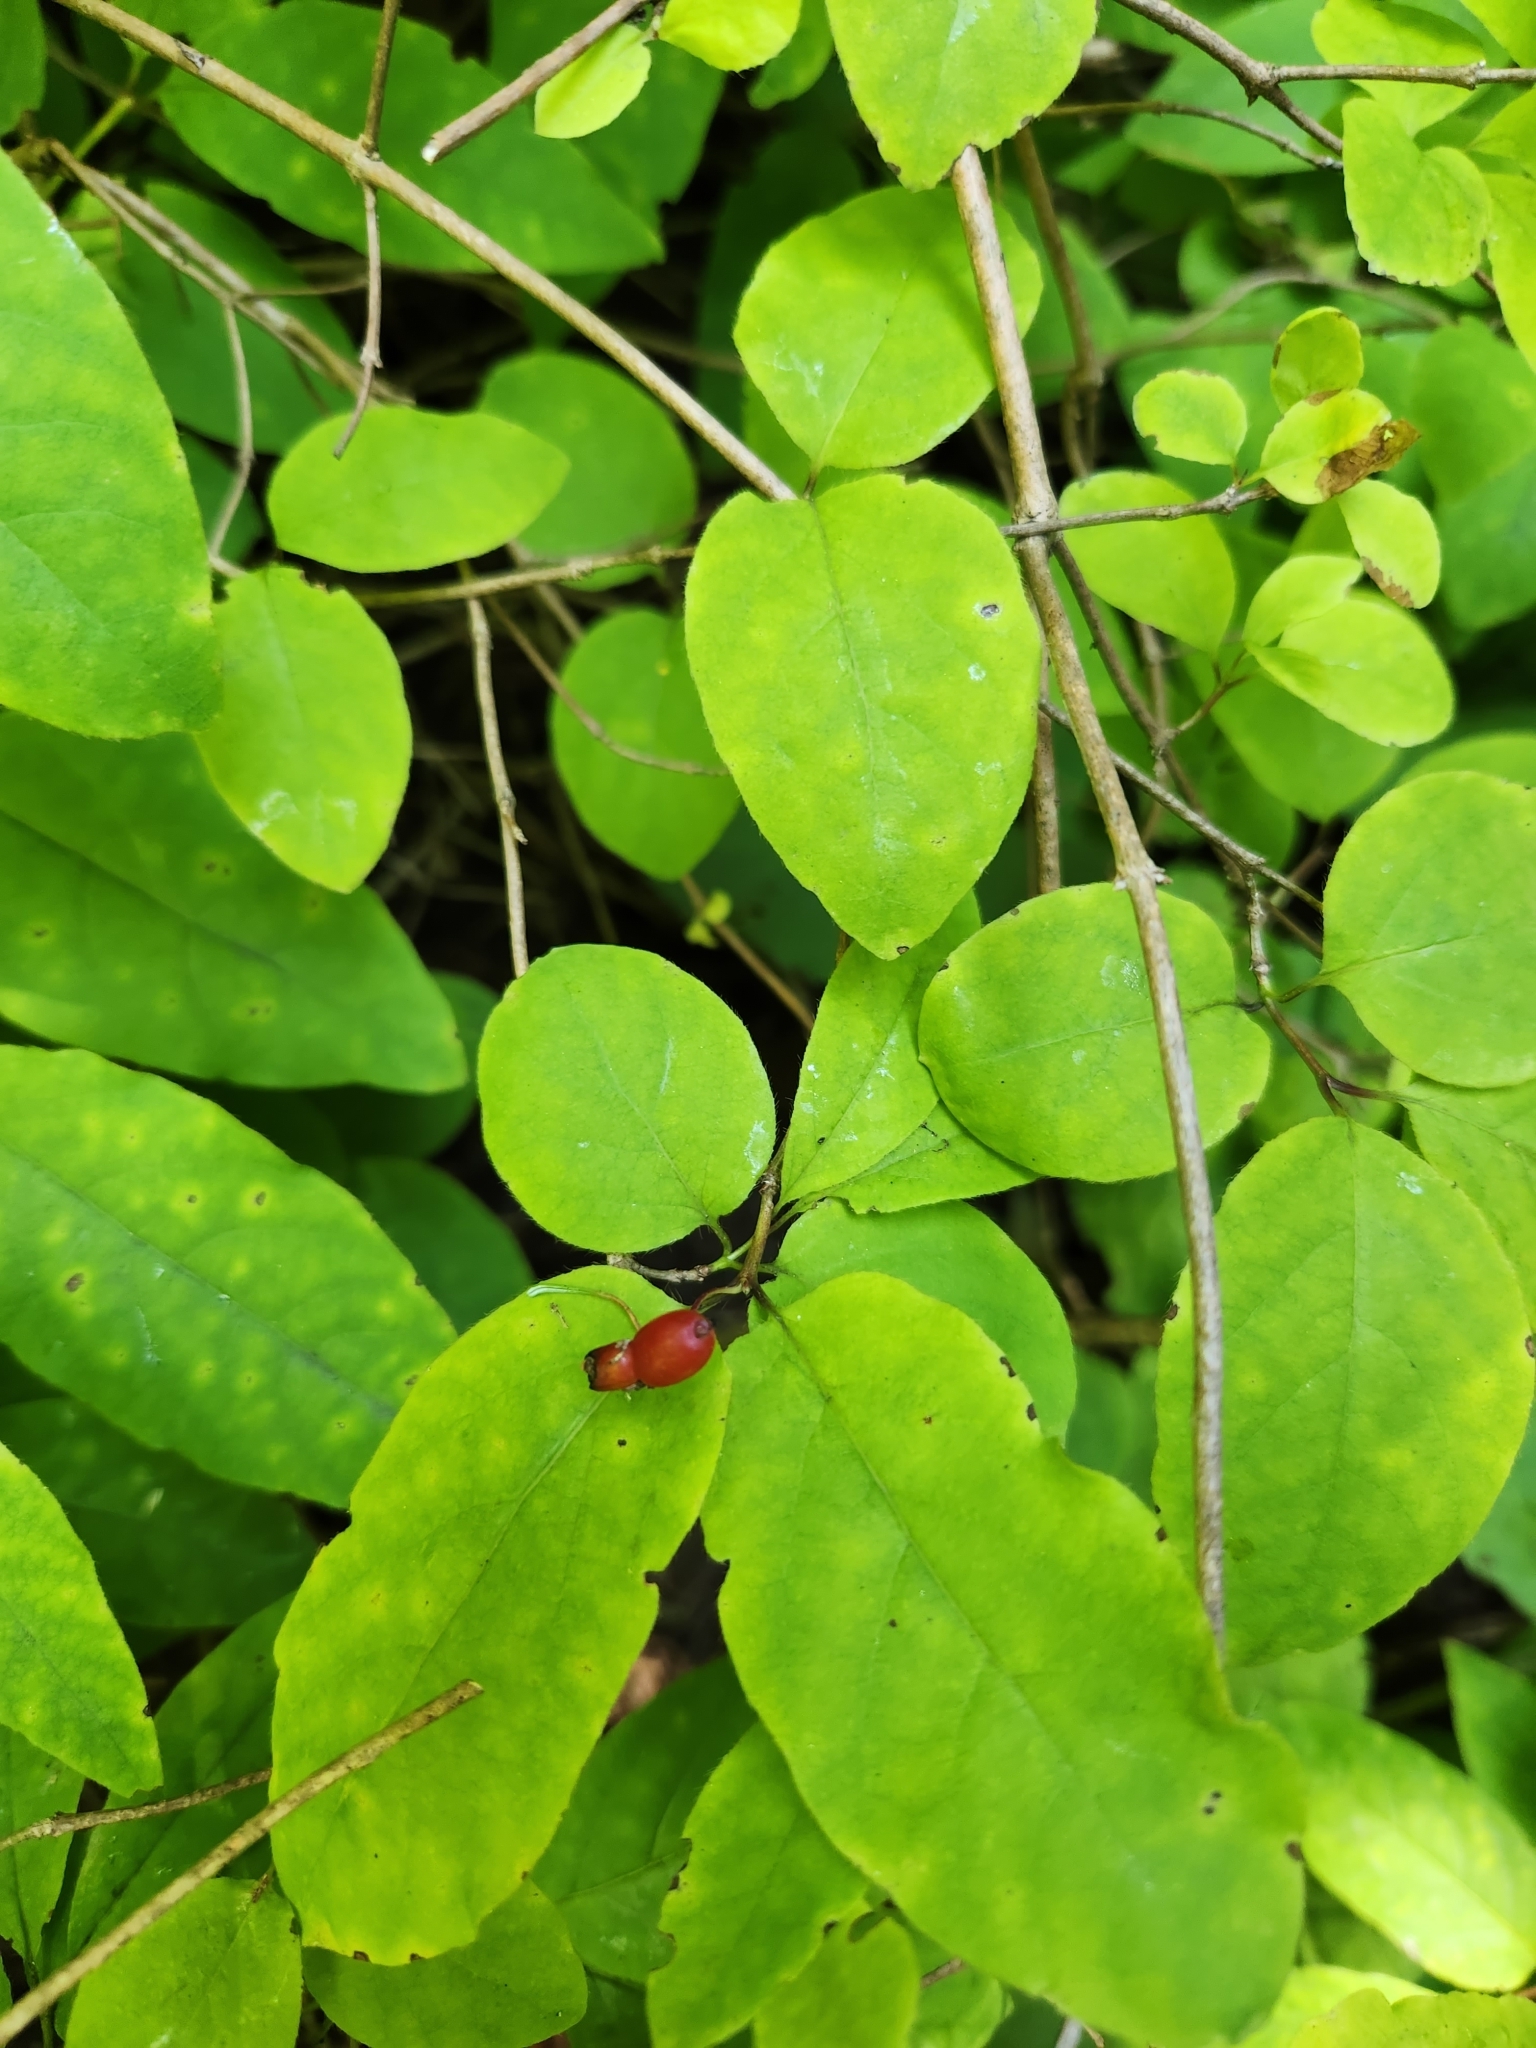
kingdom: Plantae
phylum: Tracheophyta
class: Magnoliopsida
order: Dipsacales
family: Caprifoliaceae
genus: Lonicera
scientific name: Lonicera canadensis
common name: American fly-honeysuckle
